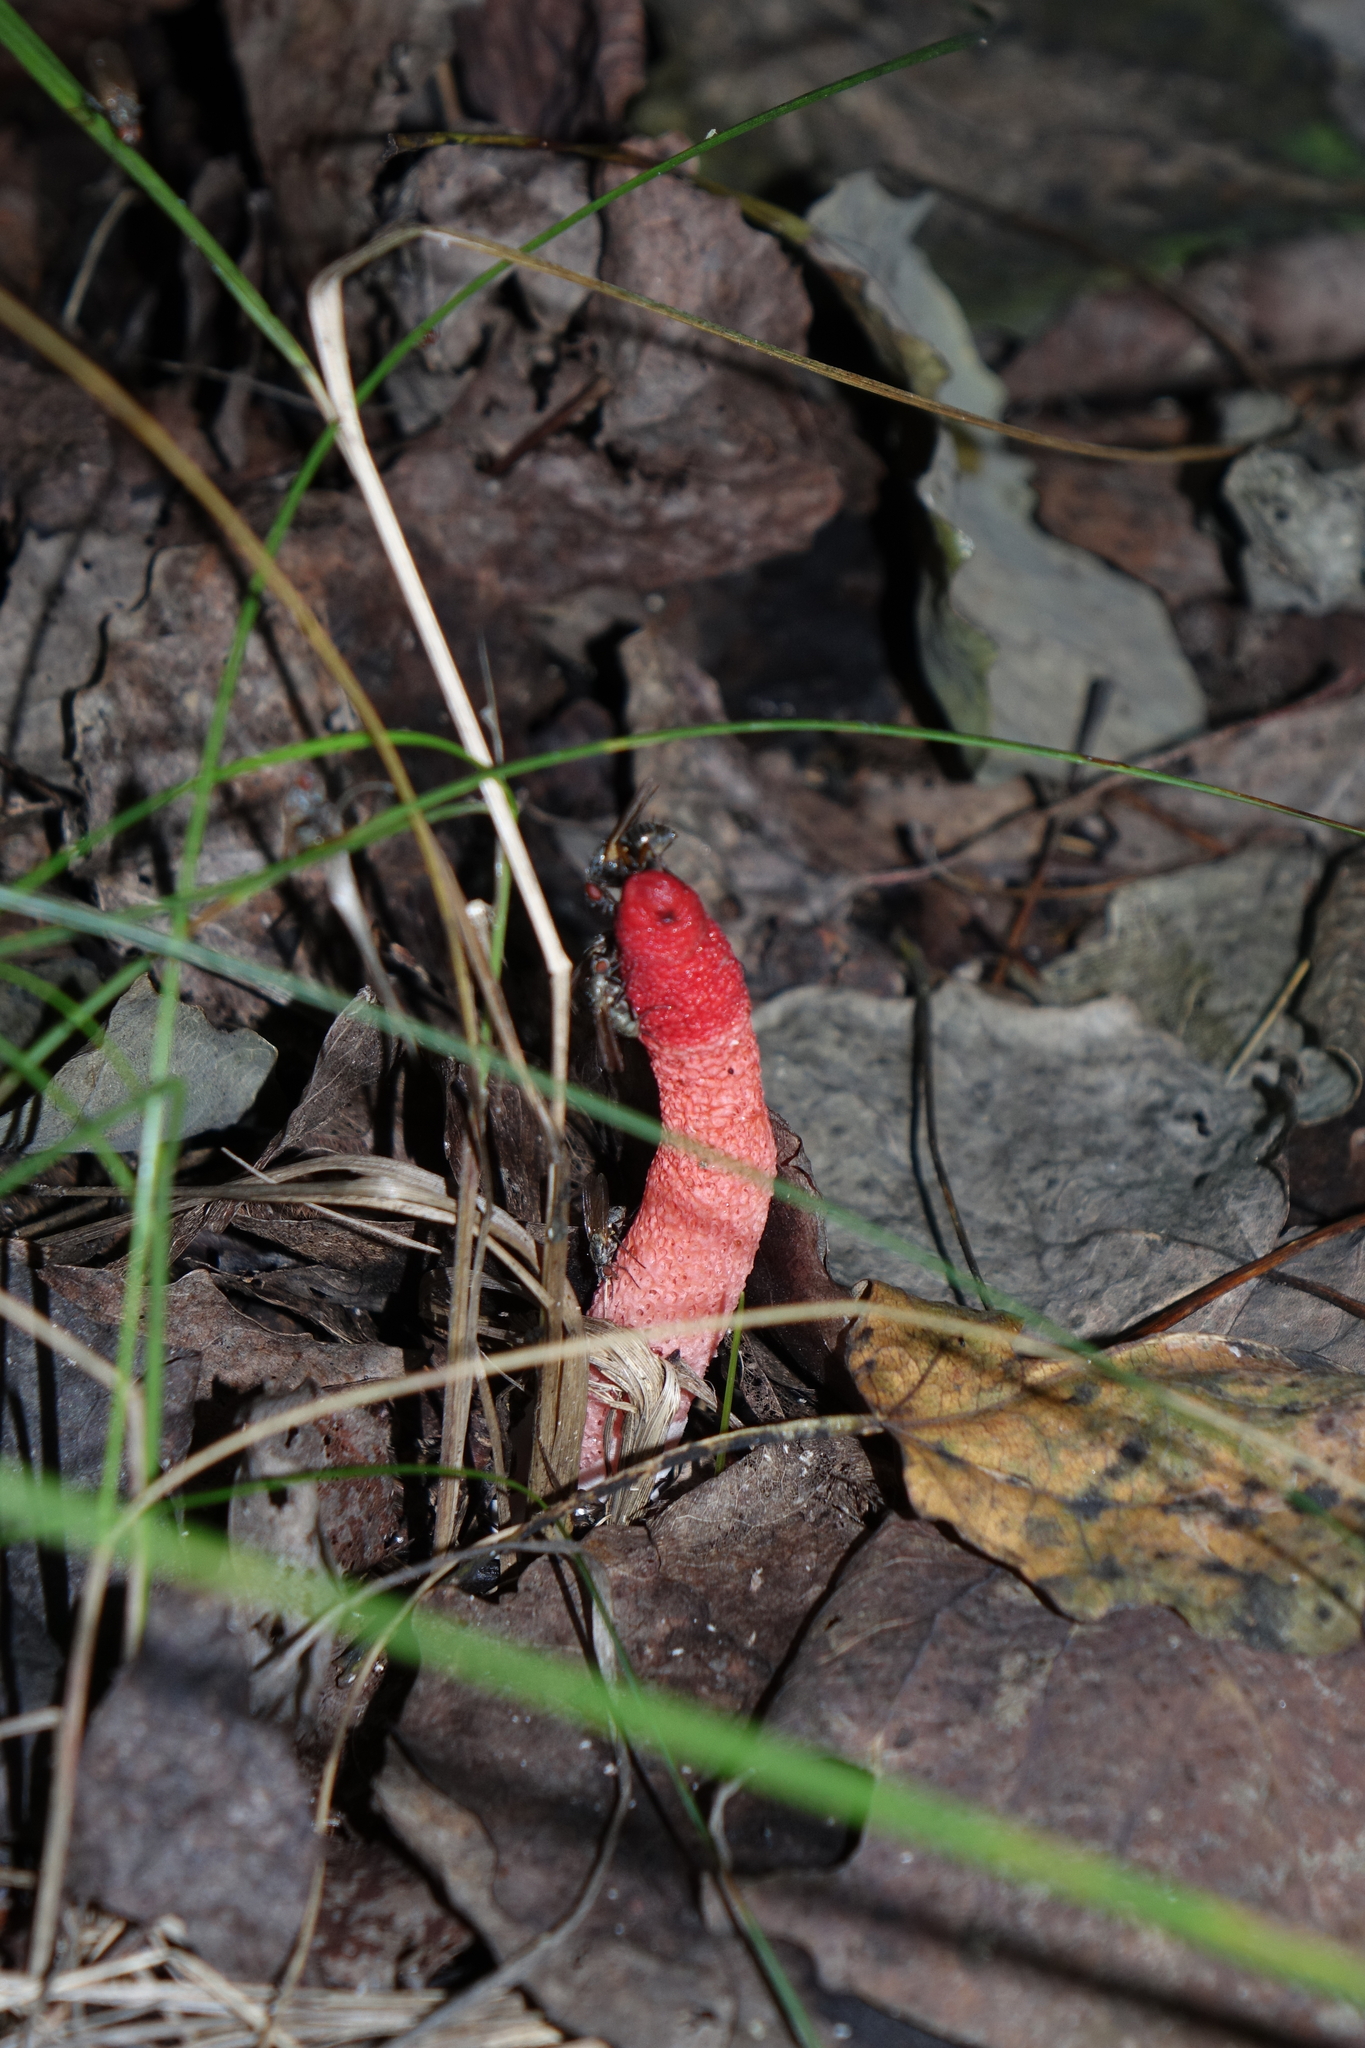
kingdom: Fungi
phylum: Basidiomycota
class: Agaricomycetes
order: Phallales
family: Phallaceae
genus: Mutinus
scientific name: Mutinus ravenelii
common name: Red stinkhorn
